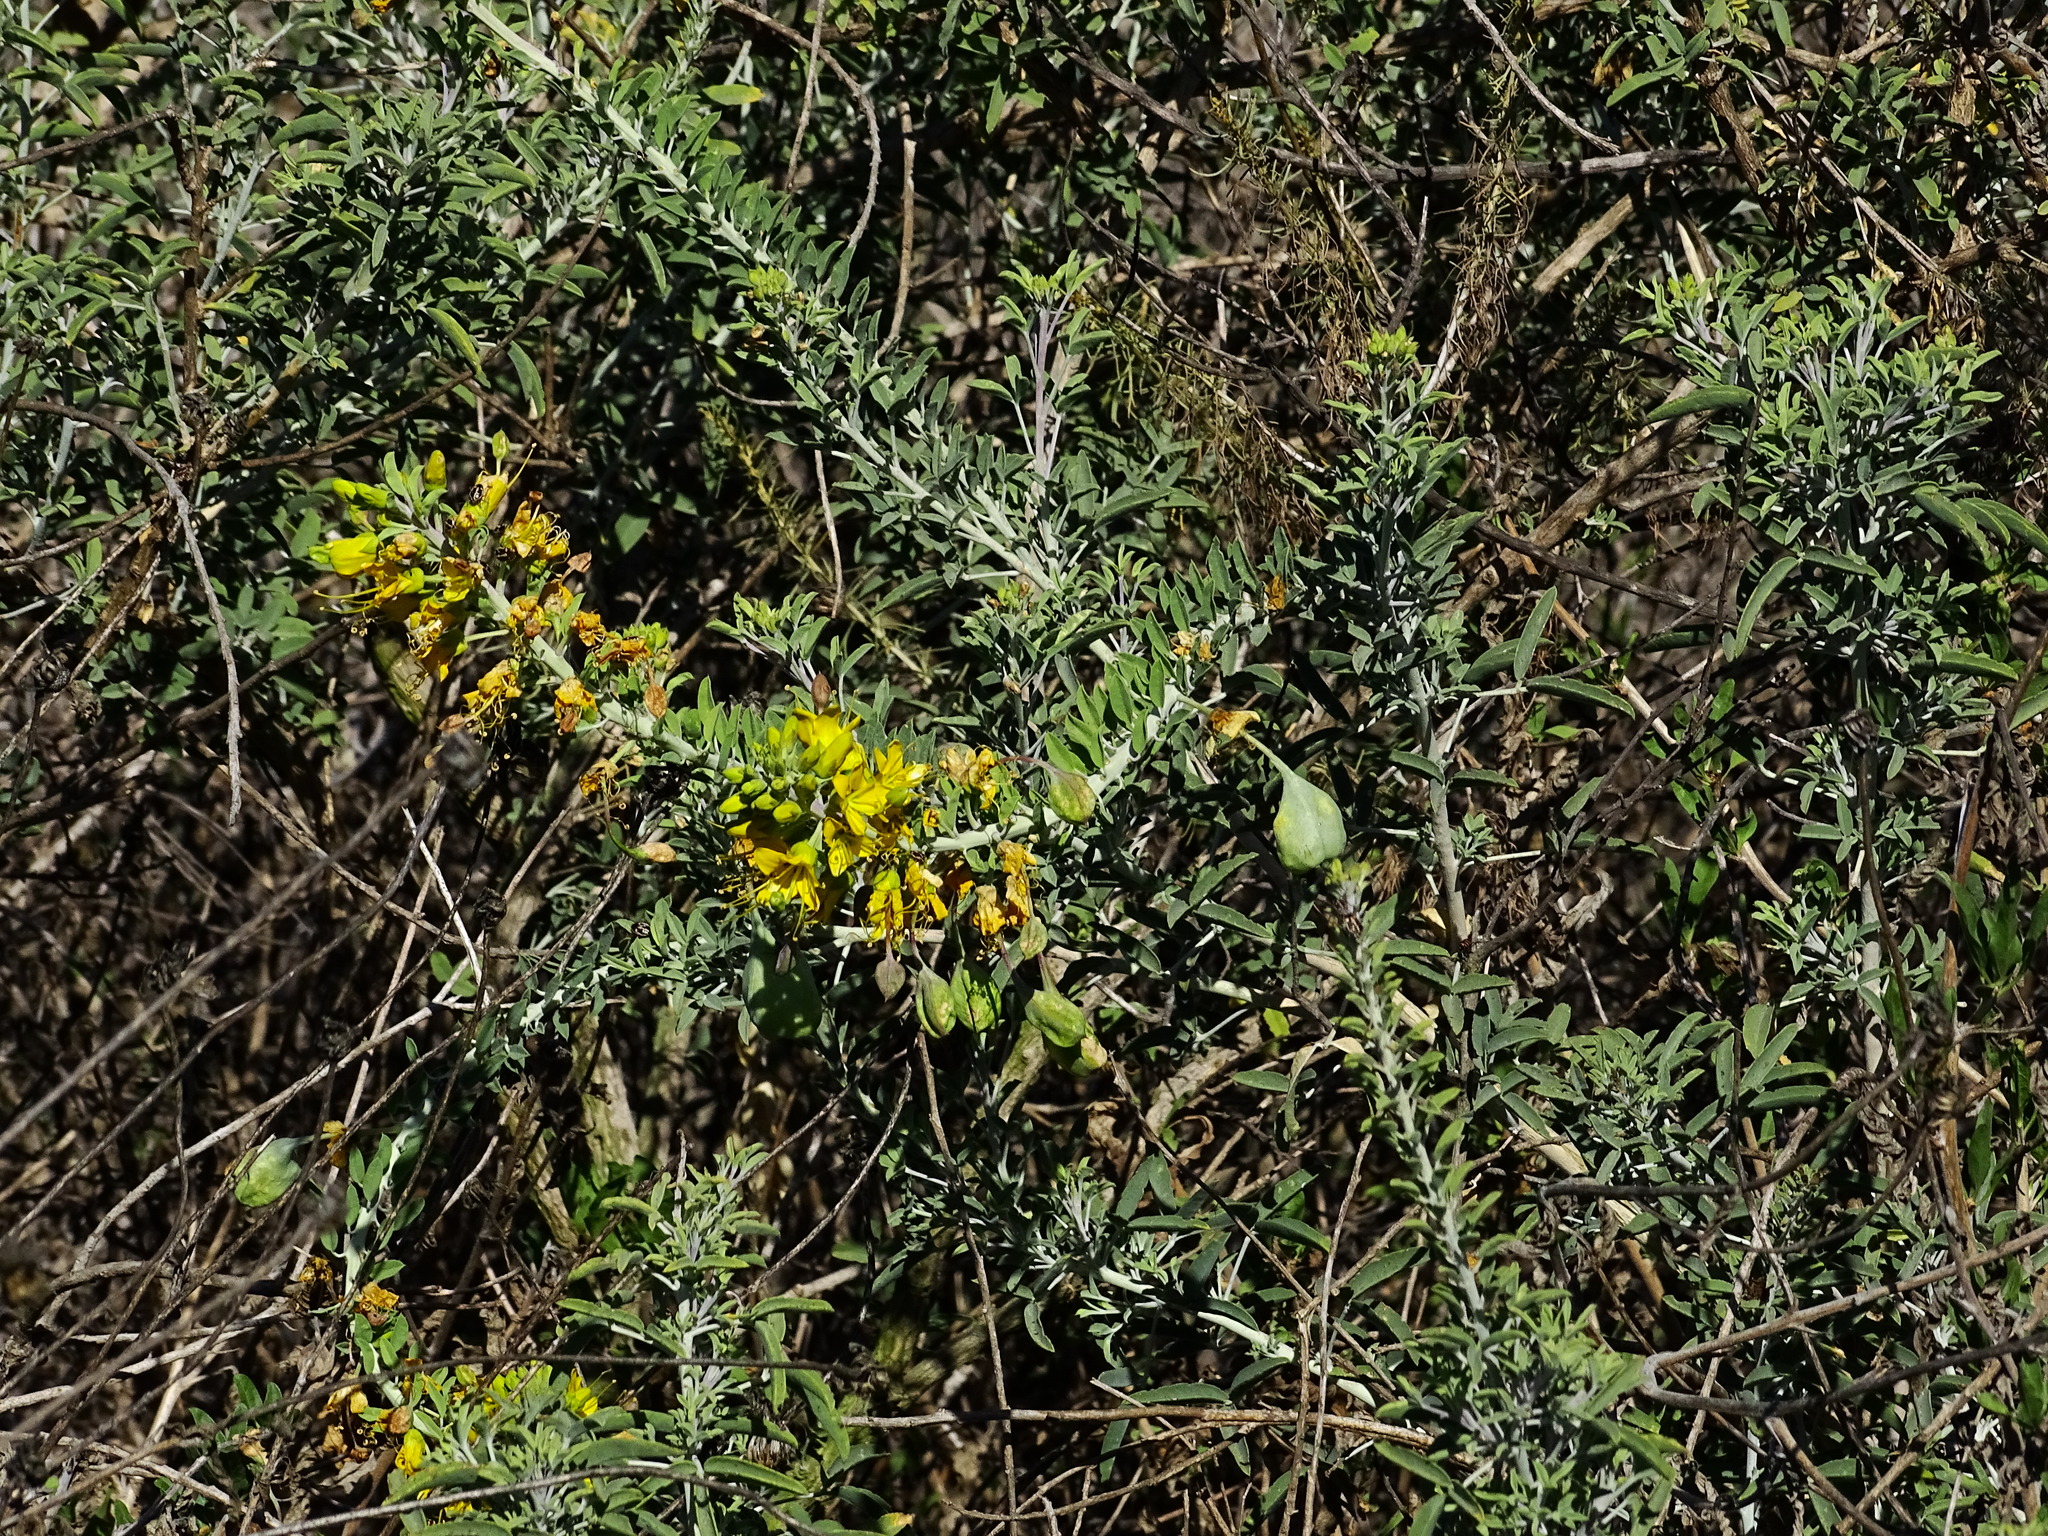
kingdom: Plantae
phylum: Tracheophyta
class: Magnoliopsida
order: Brassicales
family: Cleomaceae
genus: Cleomella
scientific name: Cleomella arborea
